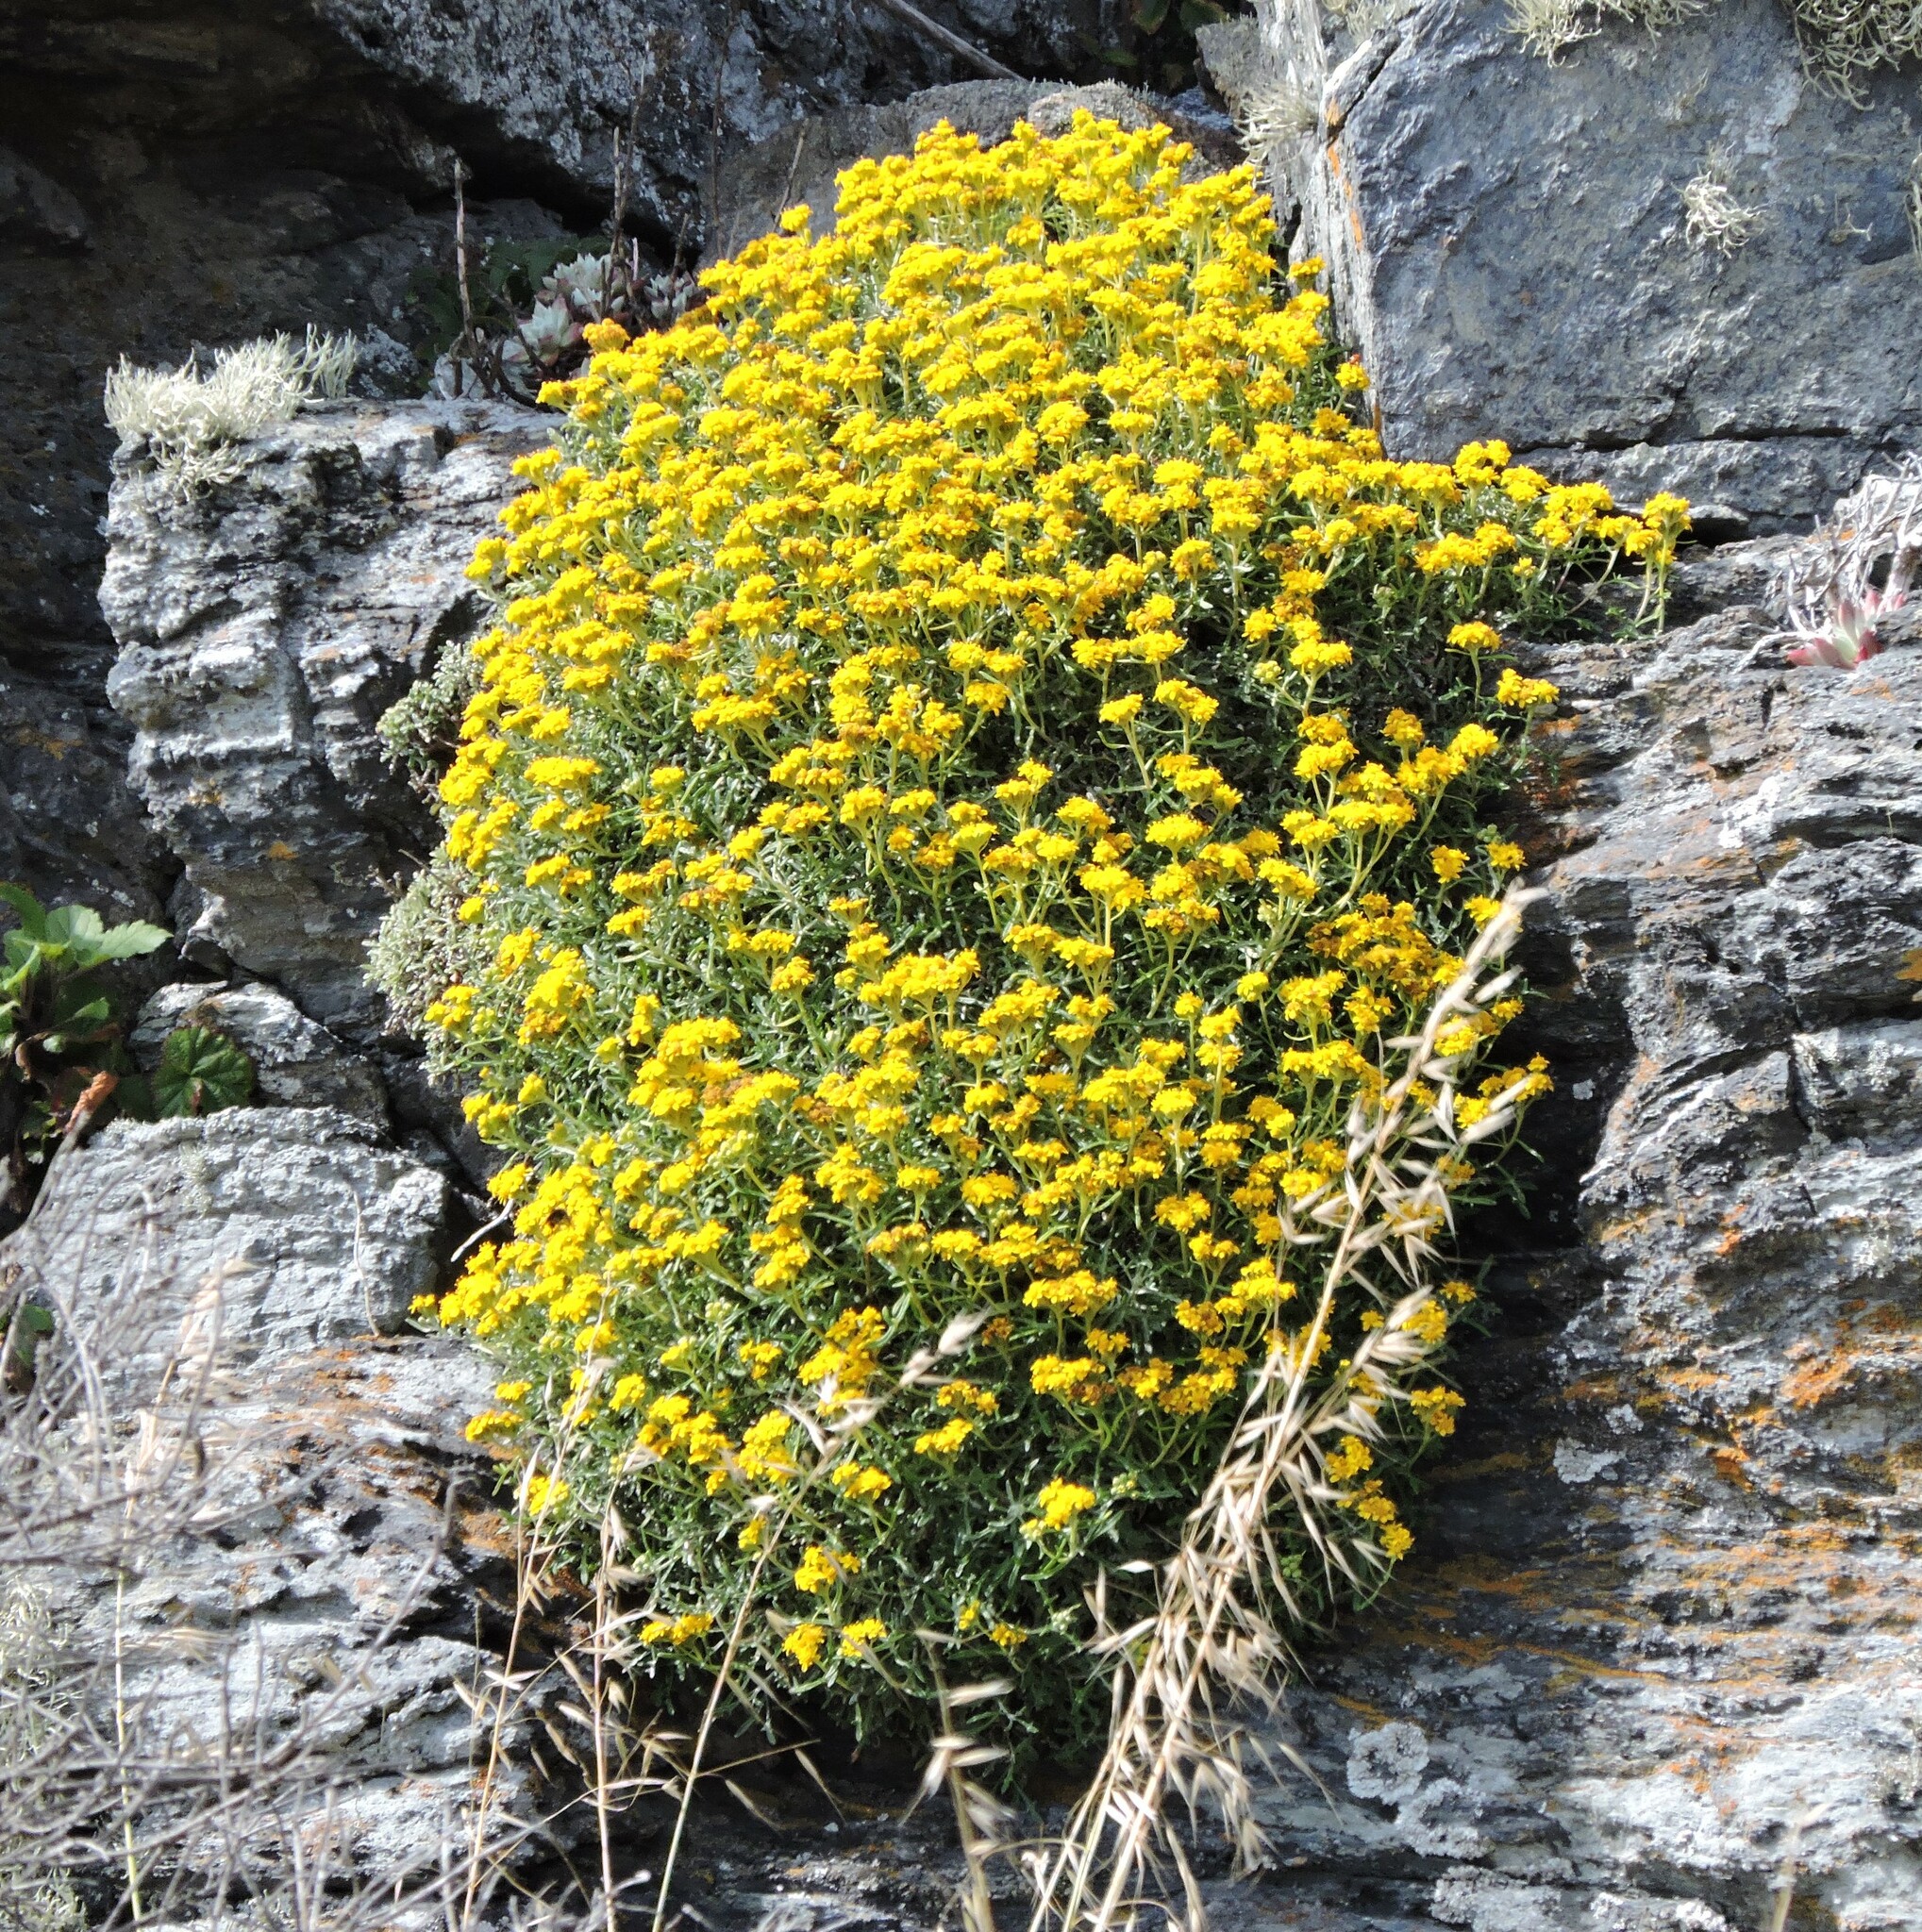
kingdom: Plantae
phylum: Tracheophyta
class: Magnoliopsida
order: Asterales
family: Asteraceae
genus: Eriophyllum
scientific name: Eriophyllum staechadifolium
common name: Lizardtail
